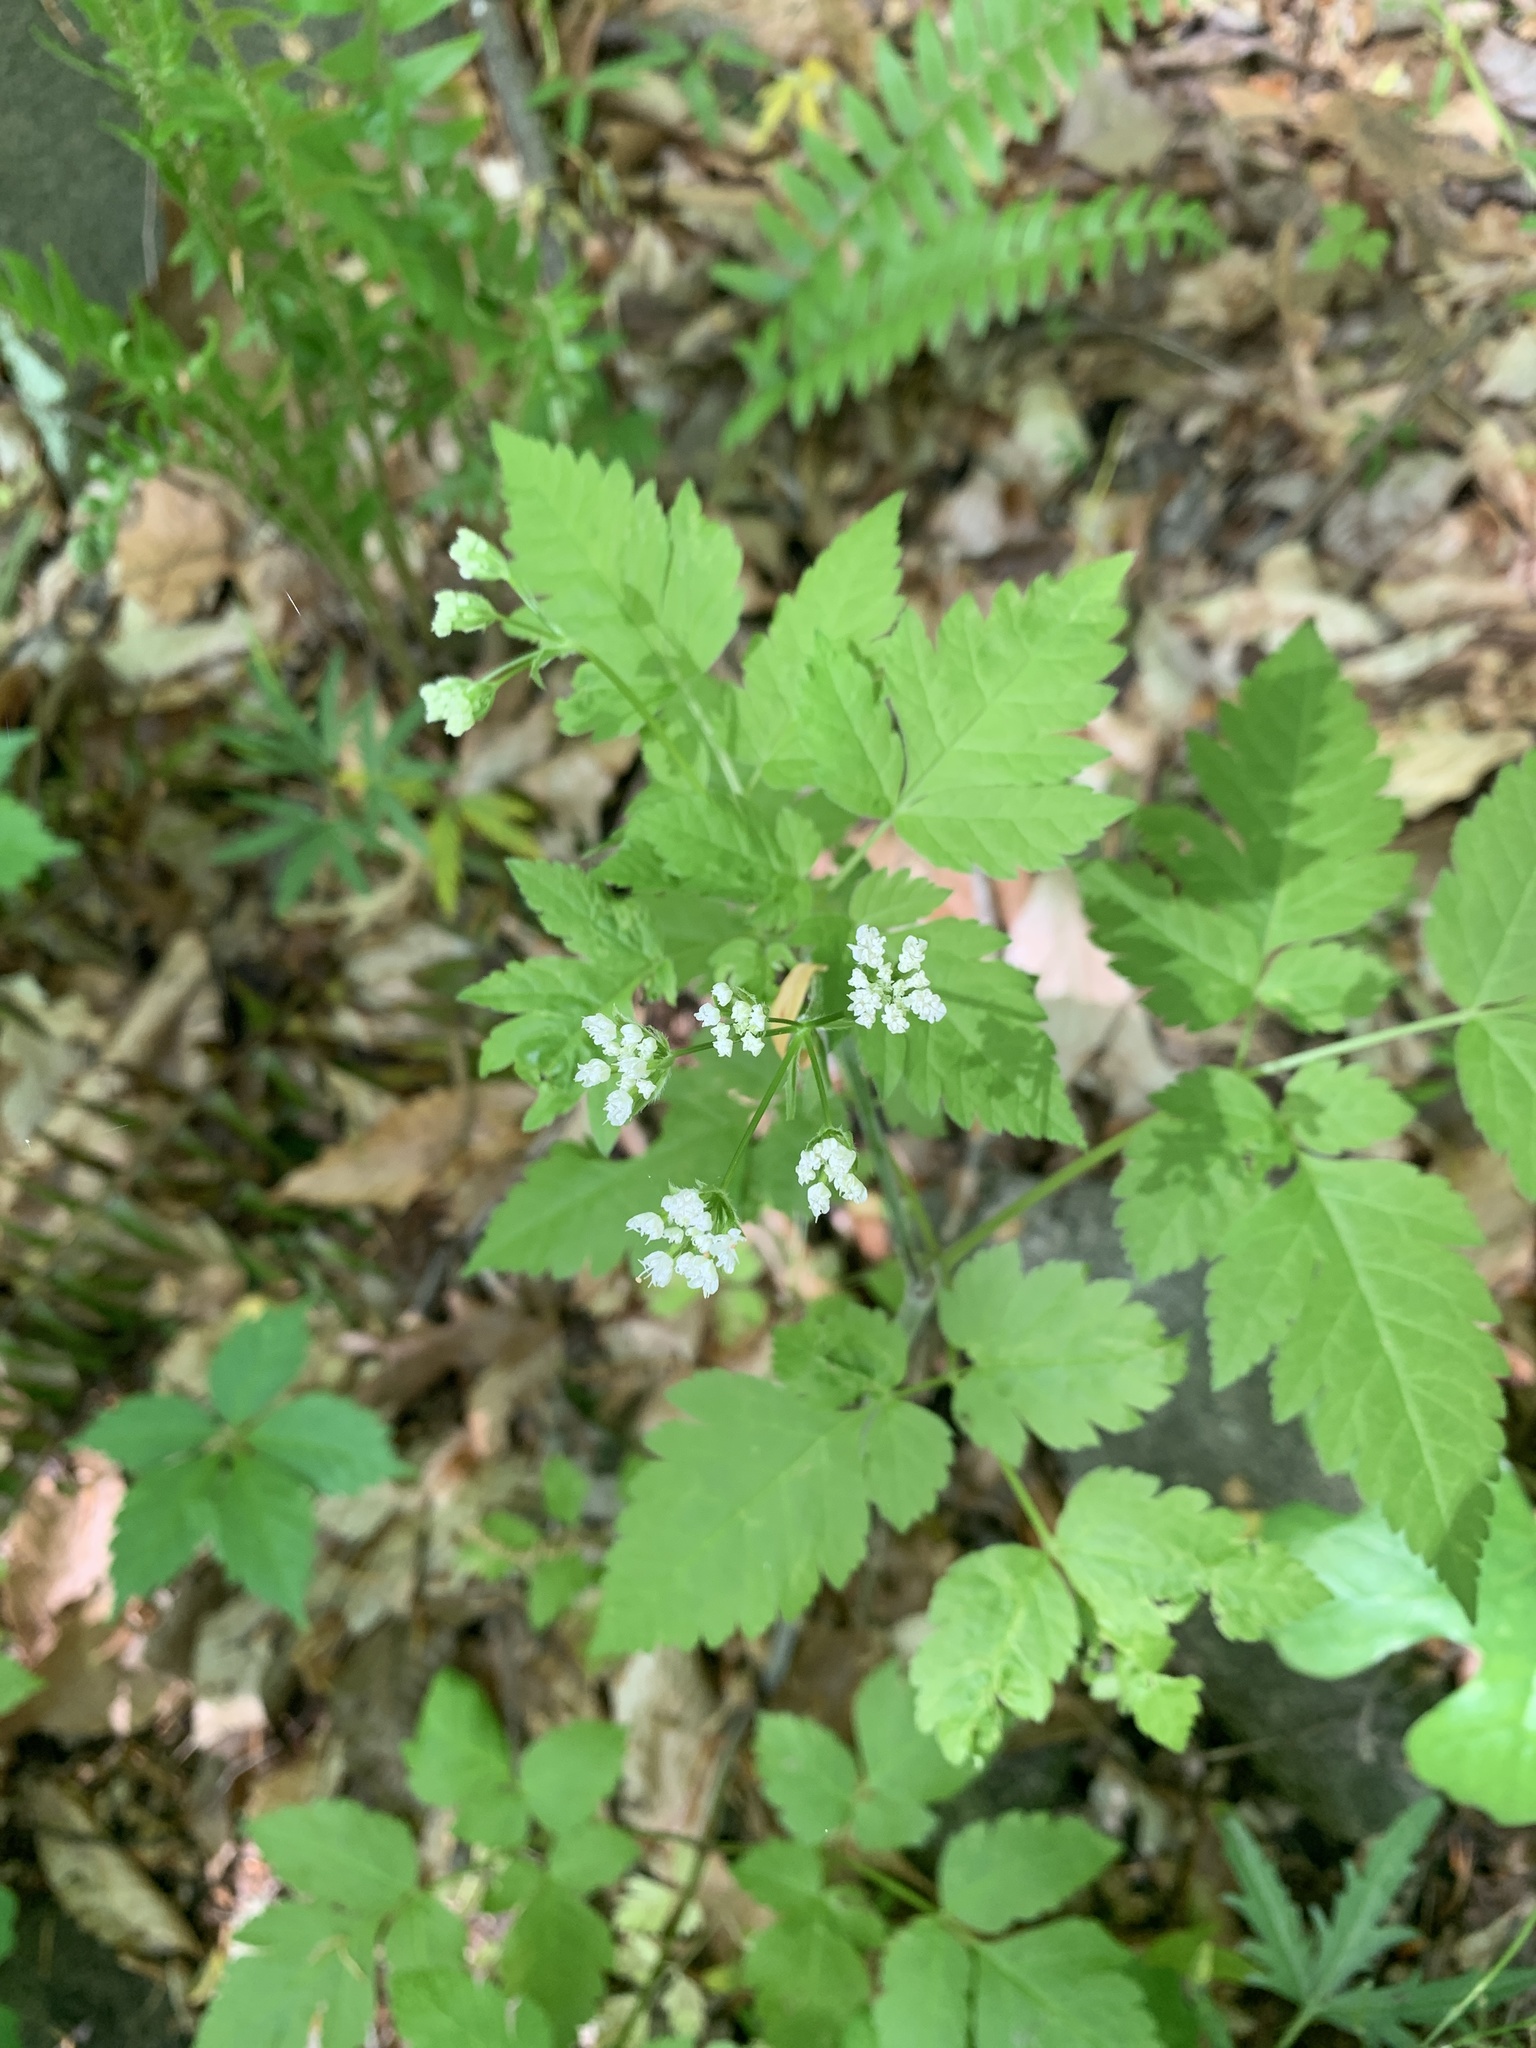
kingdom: Plantae
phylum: Tracheophyta
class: Magnoliopsida
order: Apiales
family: Apiaceae
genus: Osmorhiza
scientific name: Osmorhiza longistylis
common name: Smooth sweet cicely
